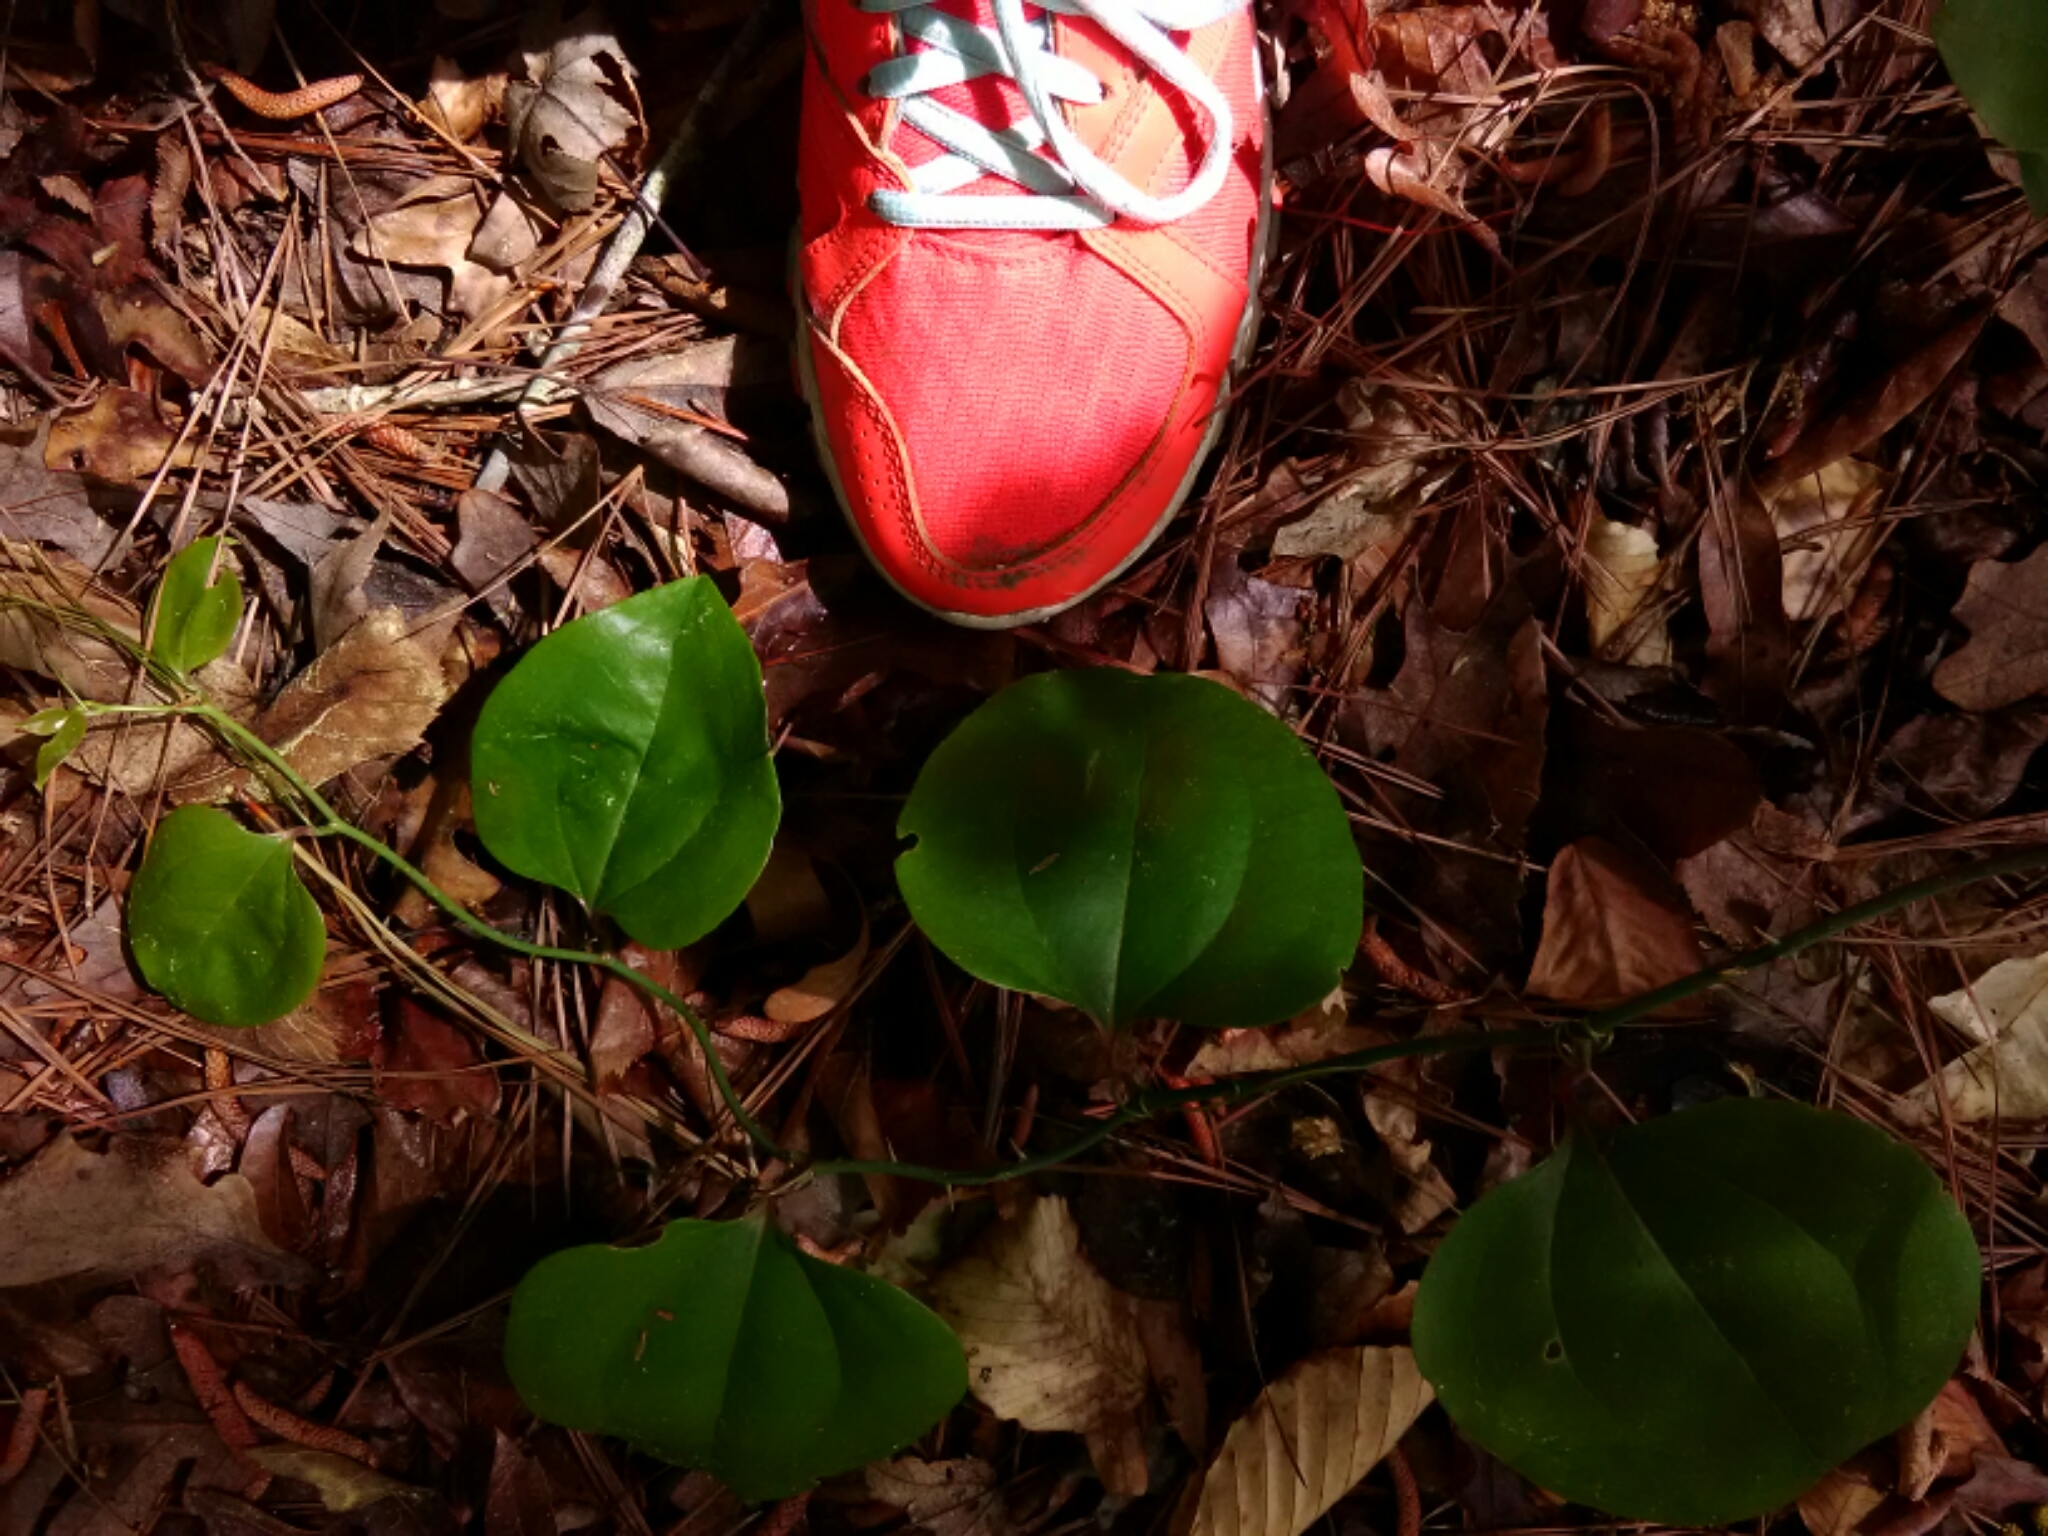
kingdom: Plantae
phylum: Tracheophyta
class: Liliopsida
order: Liliales
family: Smilacaceae
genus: Smilax
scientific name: Smilax rotundifolia
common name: Bullbriar
